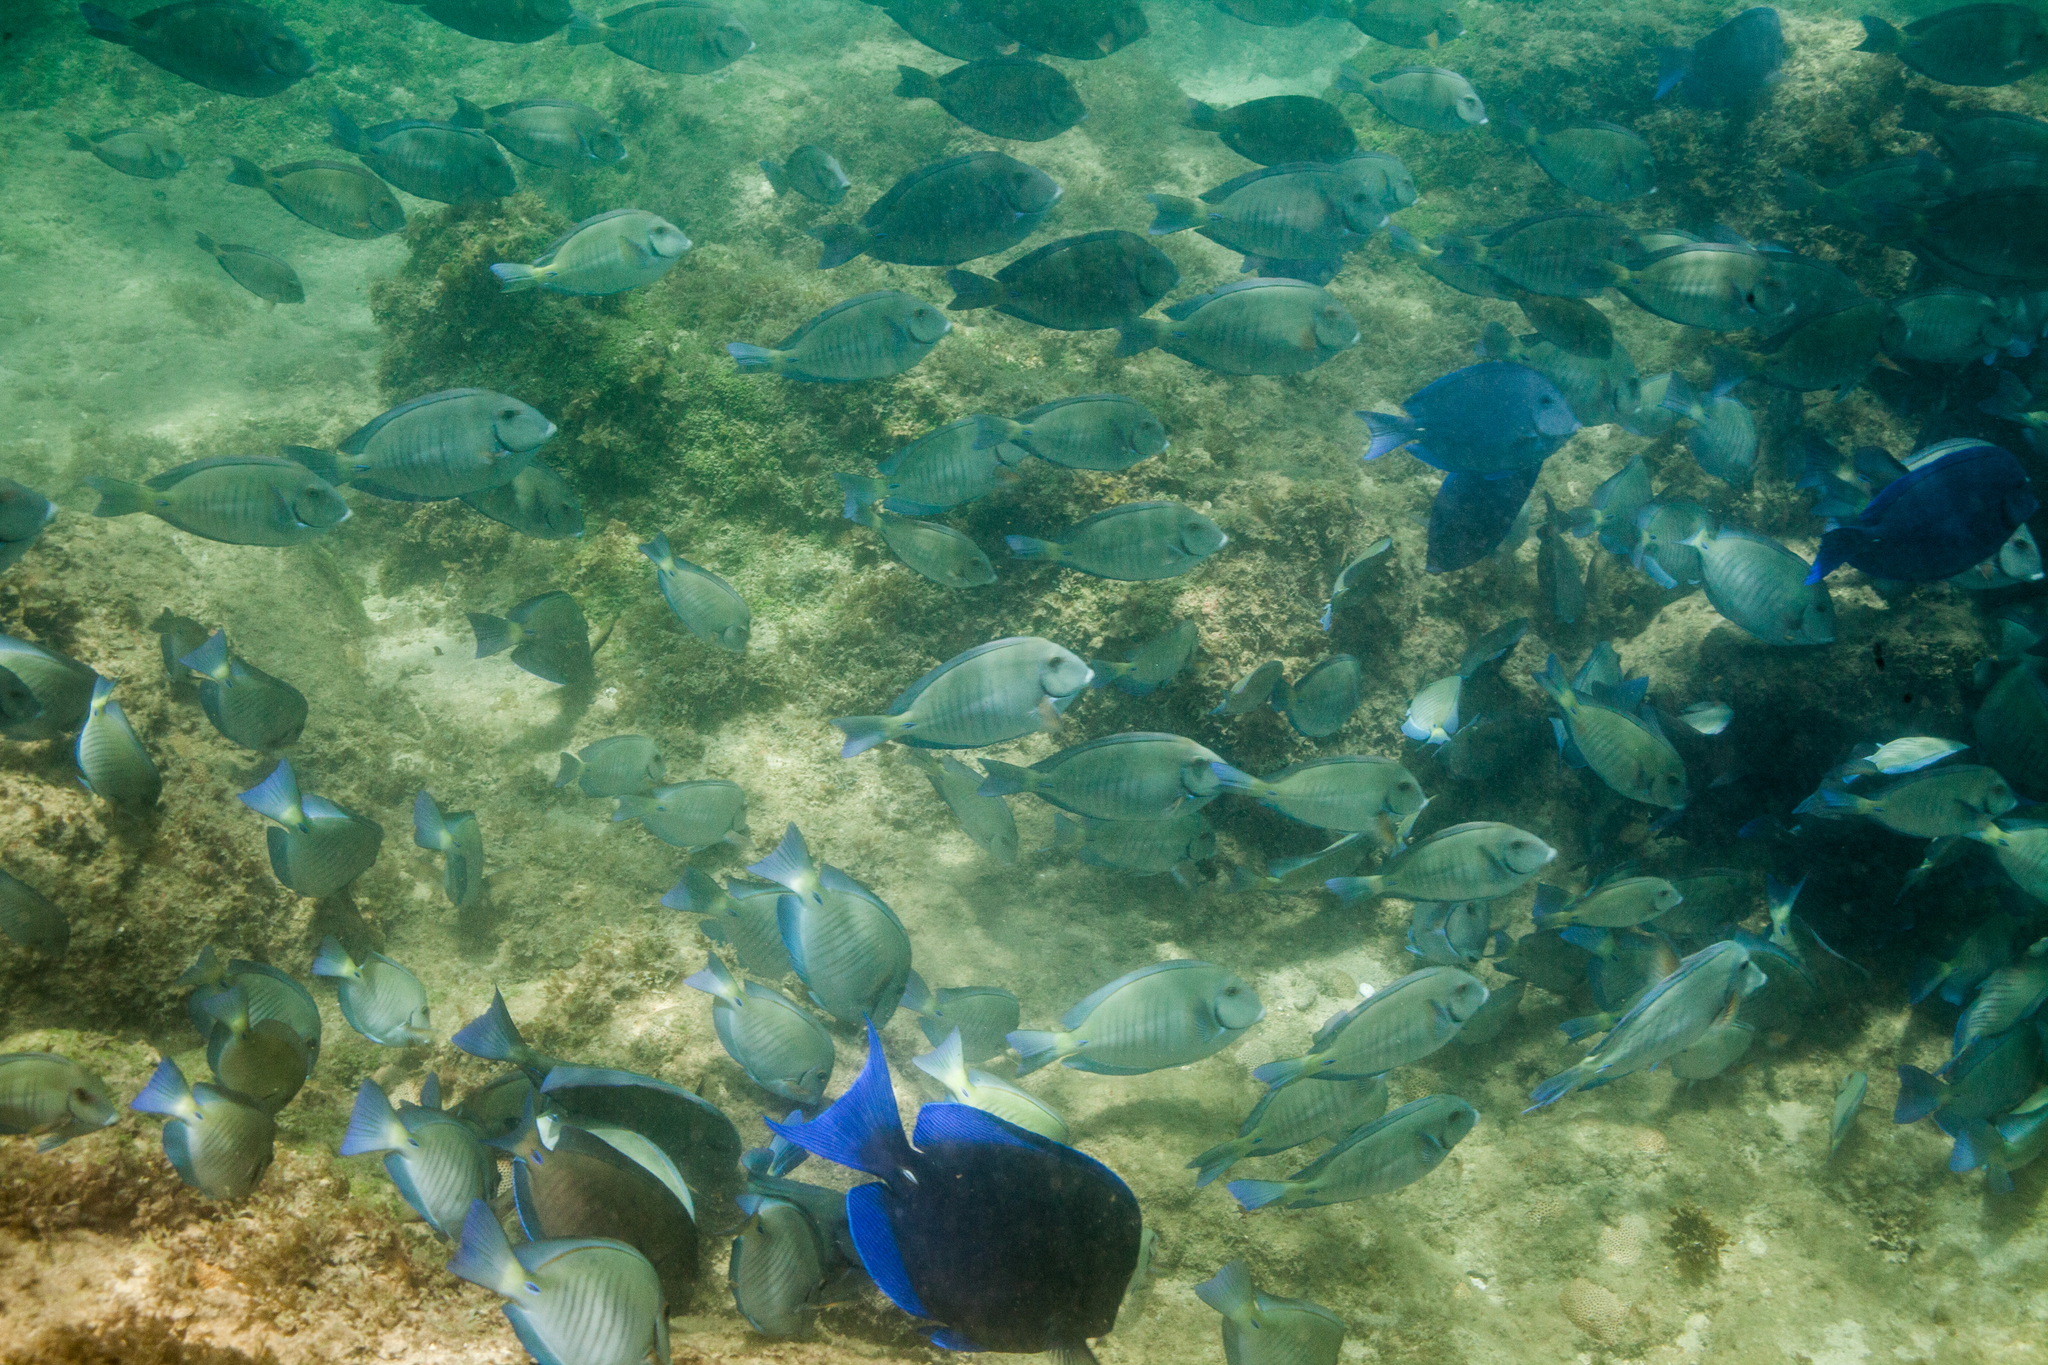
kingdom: Animalia
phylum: Chordata
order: Perciformes
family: Acanthuridae
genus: Acanthurus
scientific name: Acanthurus chirurgus
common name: Doctorfish
